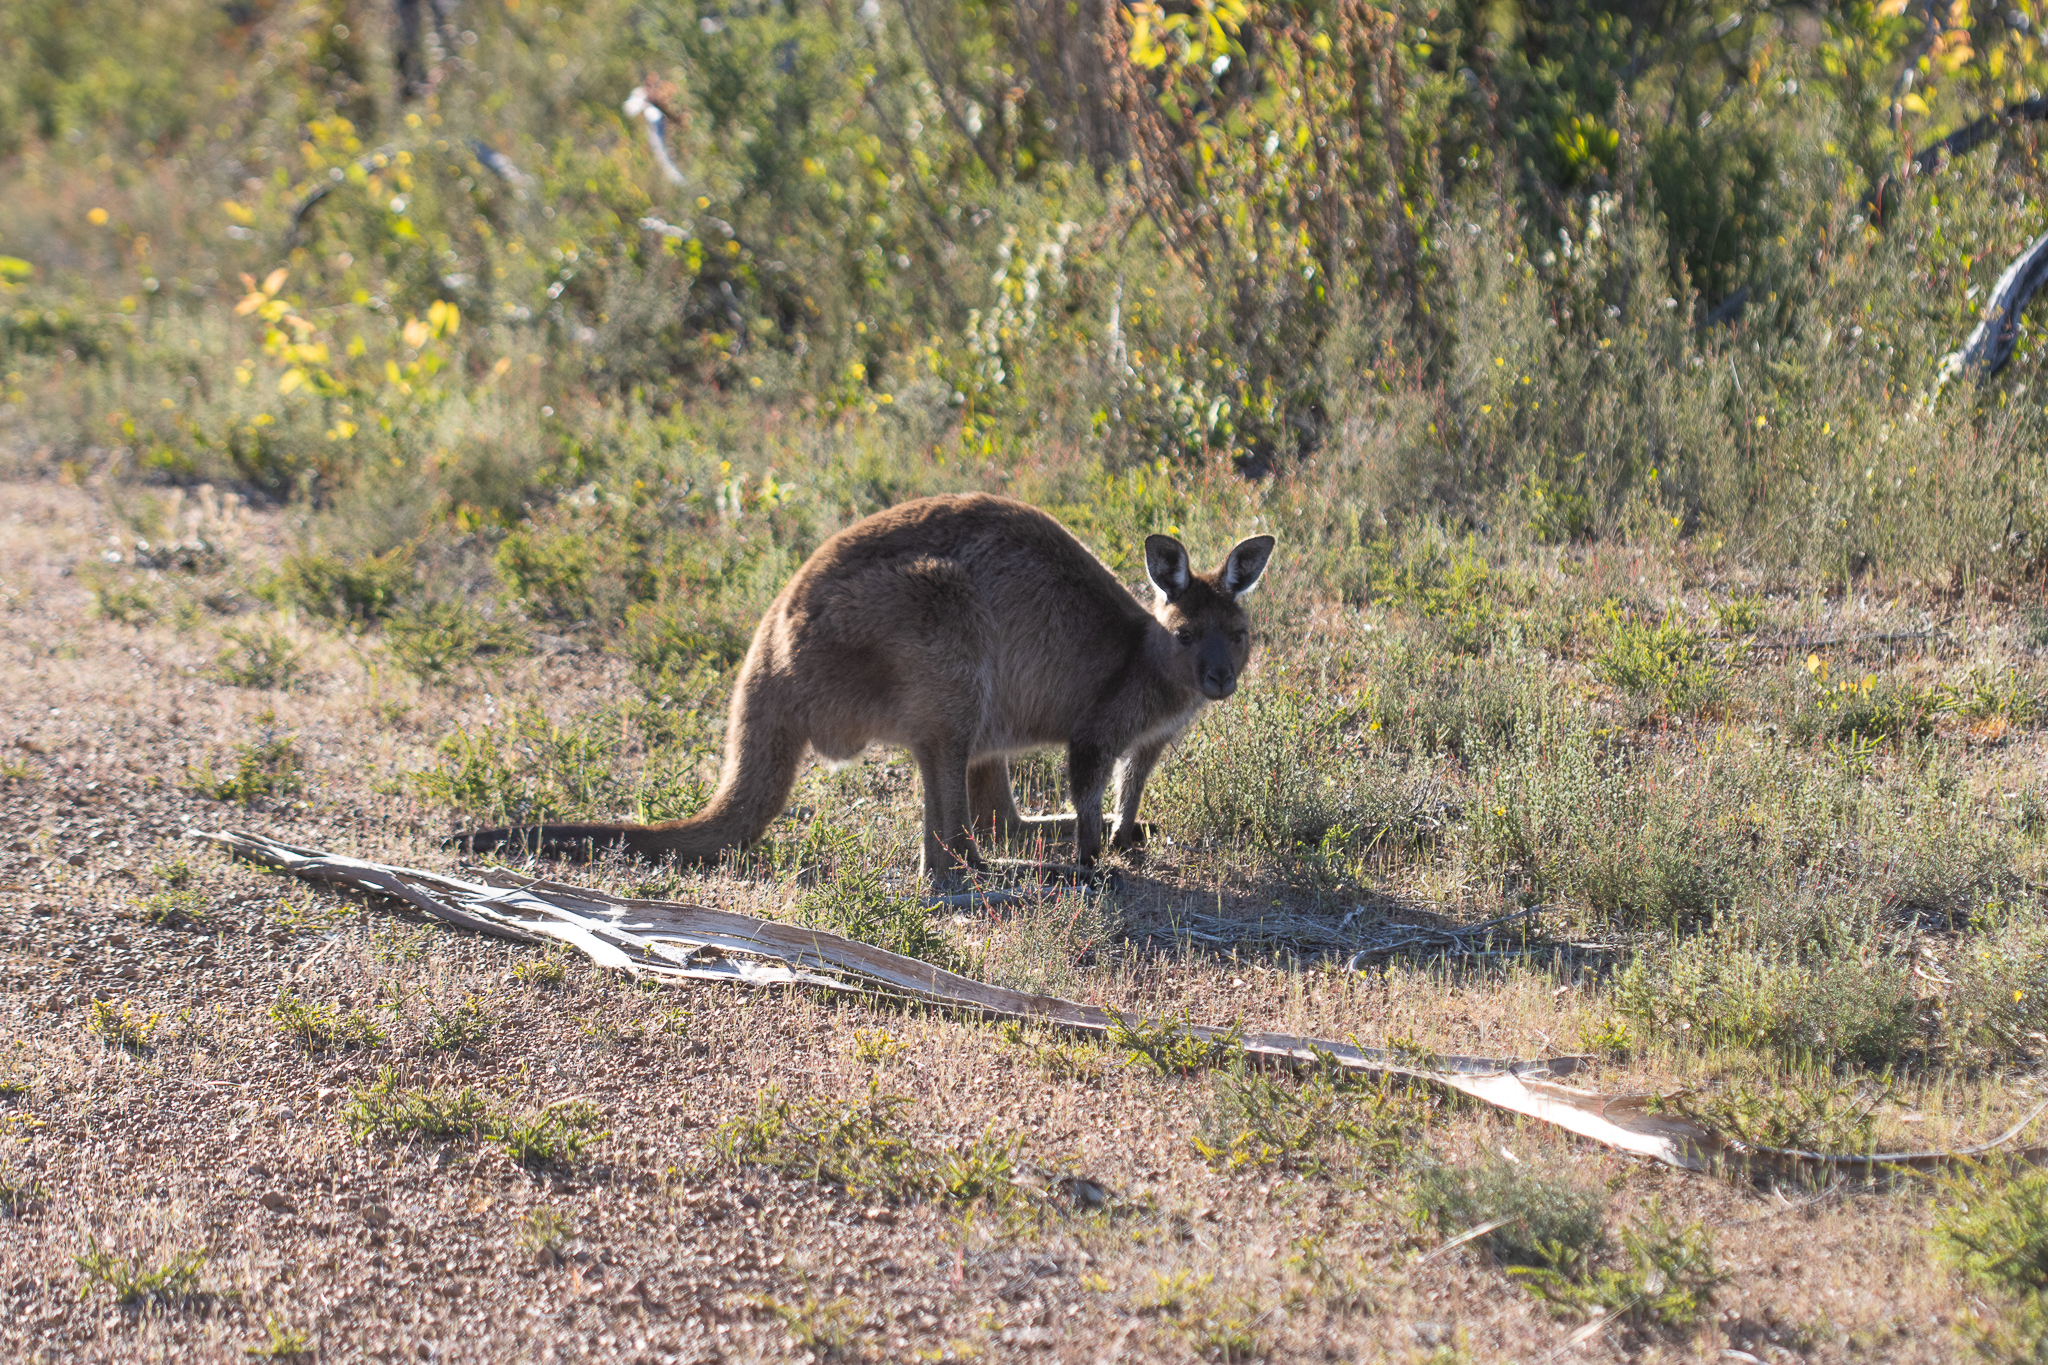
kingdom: Animalia
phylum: Chordata
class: Mammalia
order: Diprotodontia
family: Macropodidae
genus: Macropus
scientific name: Macropus fuliginosus
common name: Western grey kangaroo
